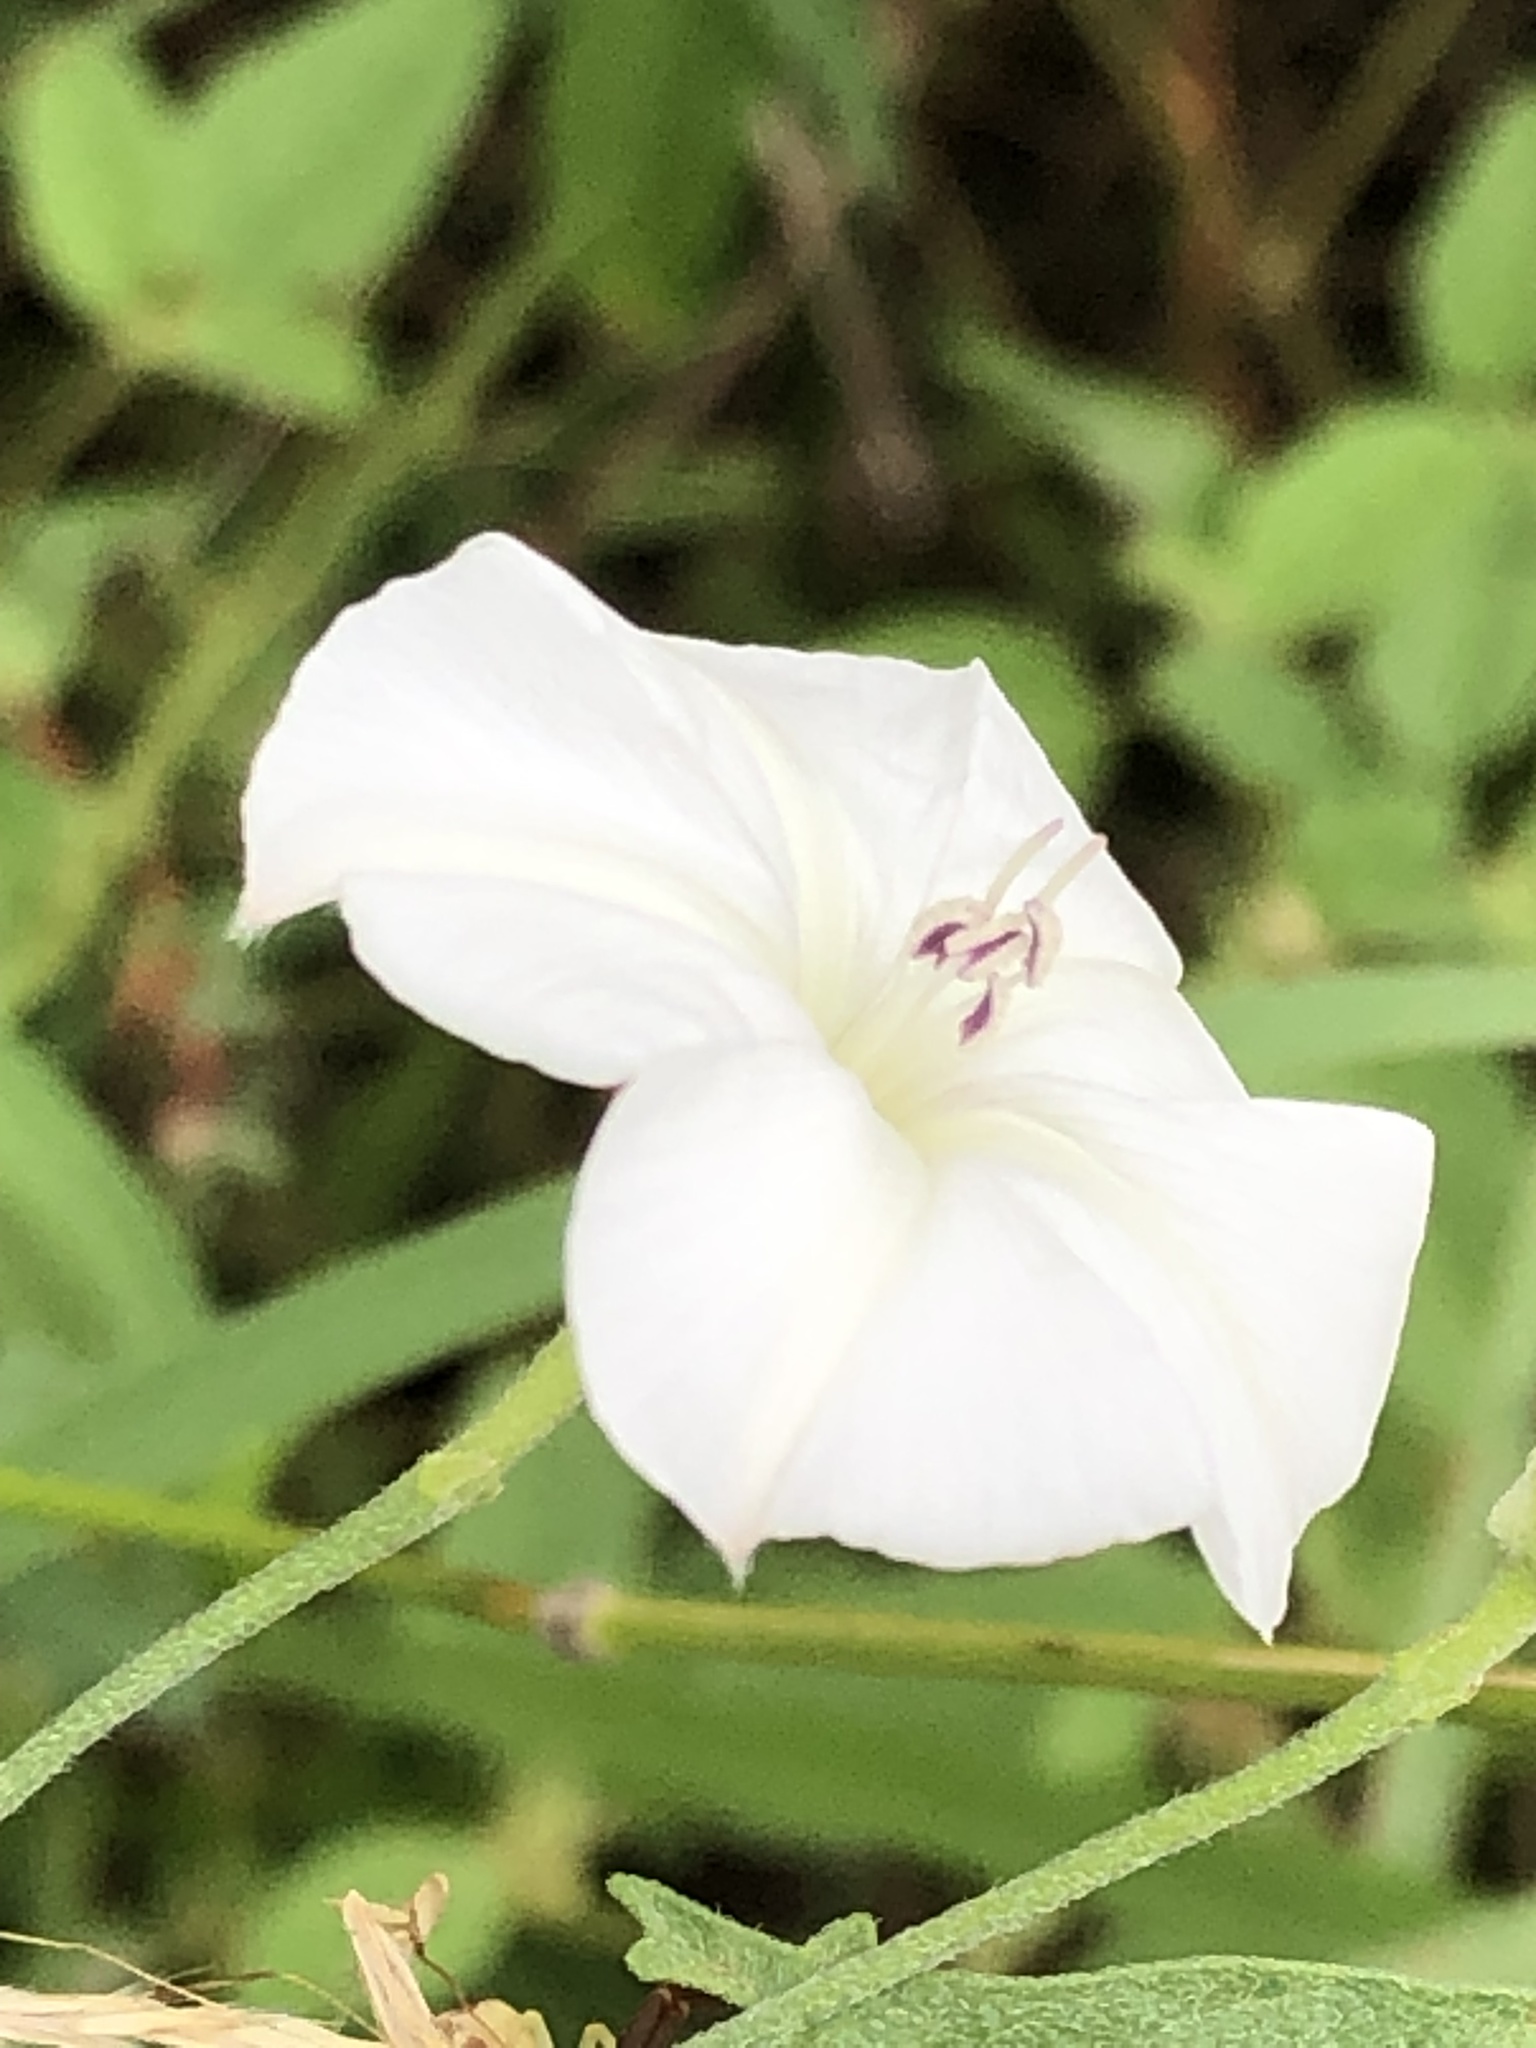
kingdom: Plantae
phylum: Tracheophyta
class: Magnoliopsida
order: Solanales
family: Convolvulaceae
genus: Convolvulus
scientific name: Convolvulus equitans
